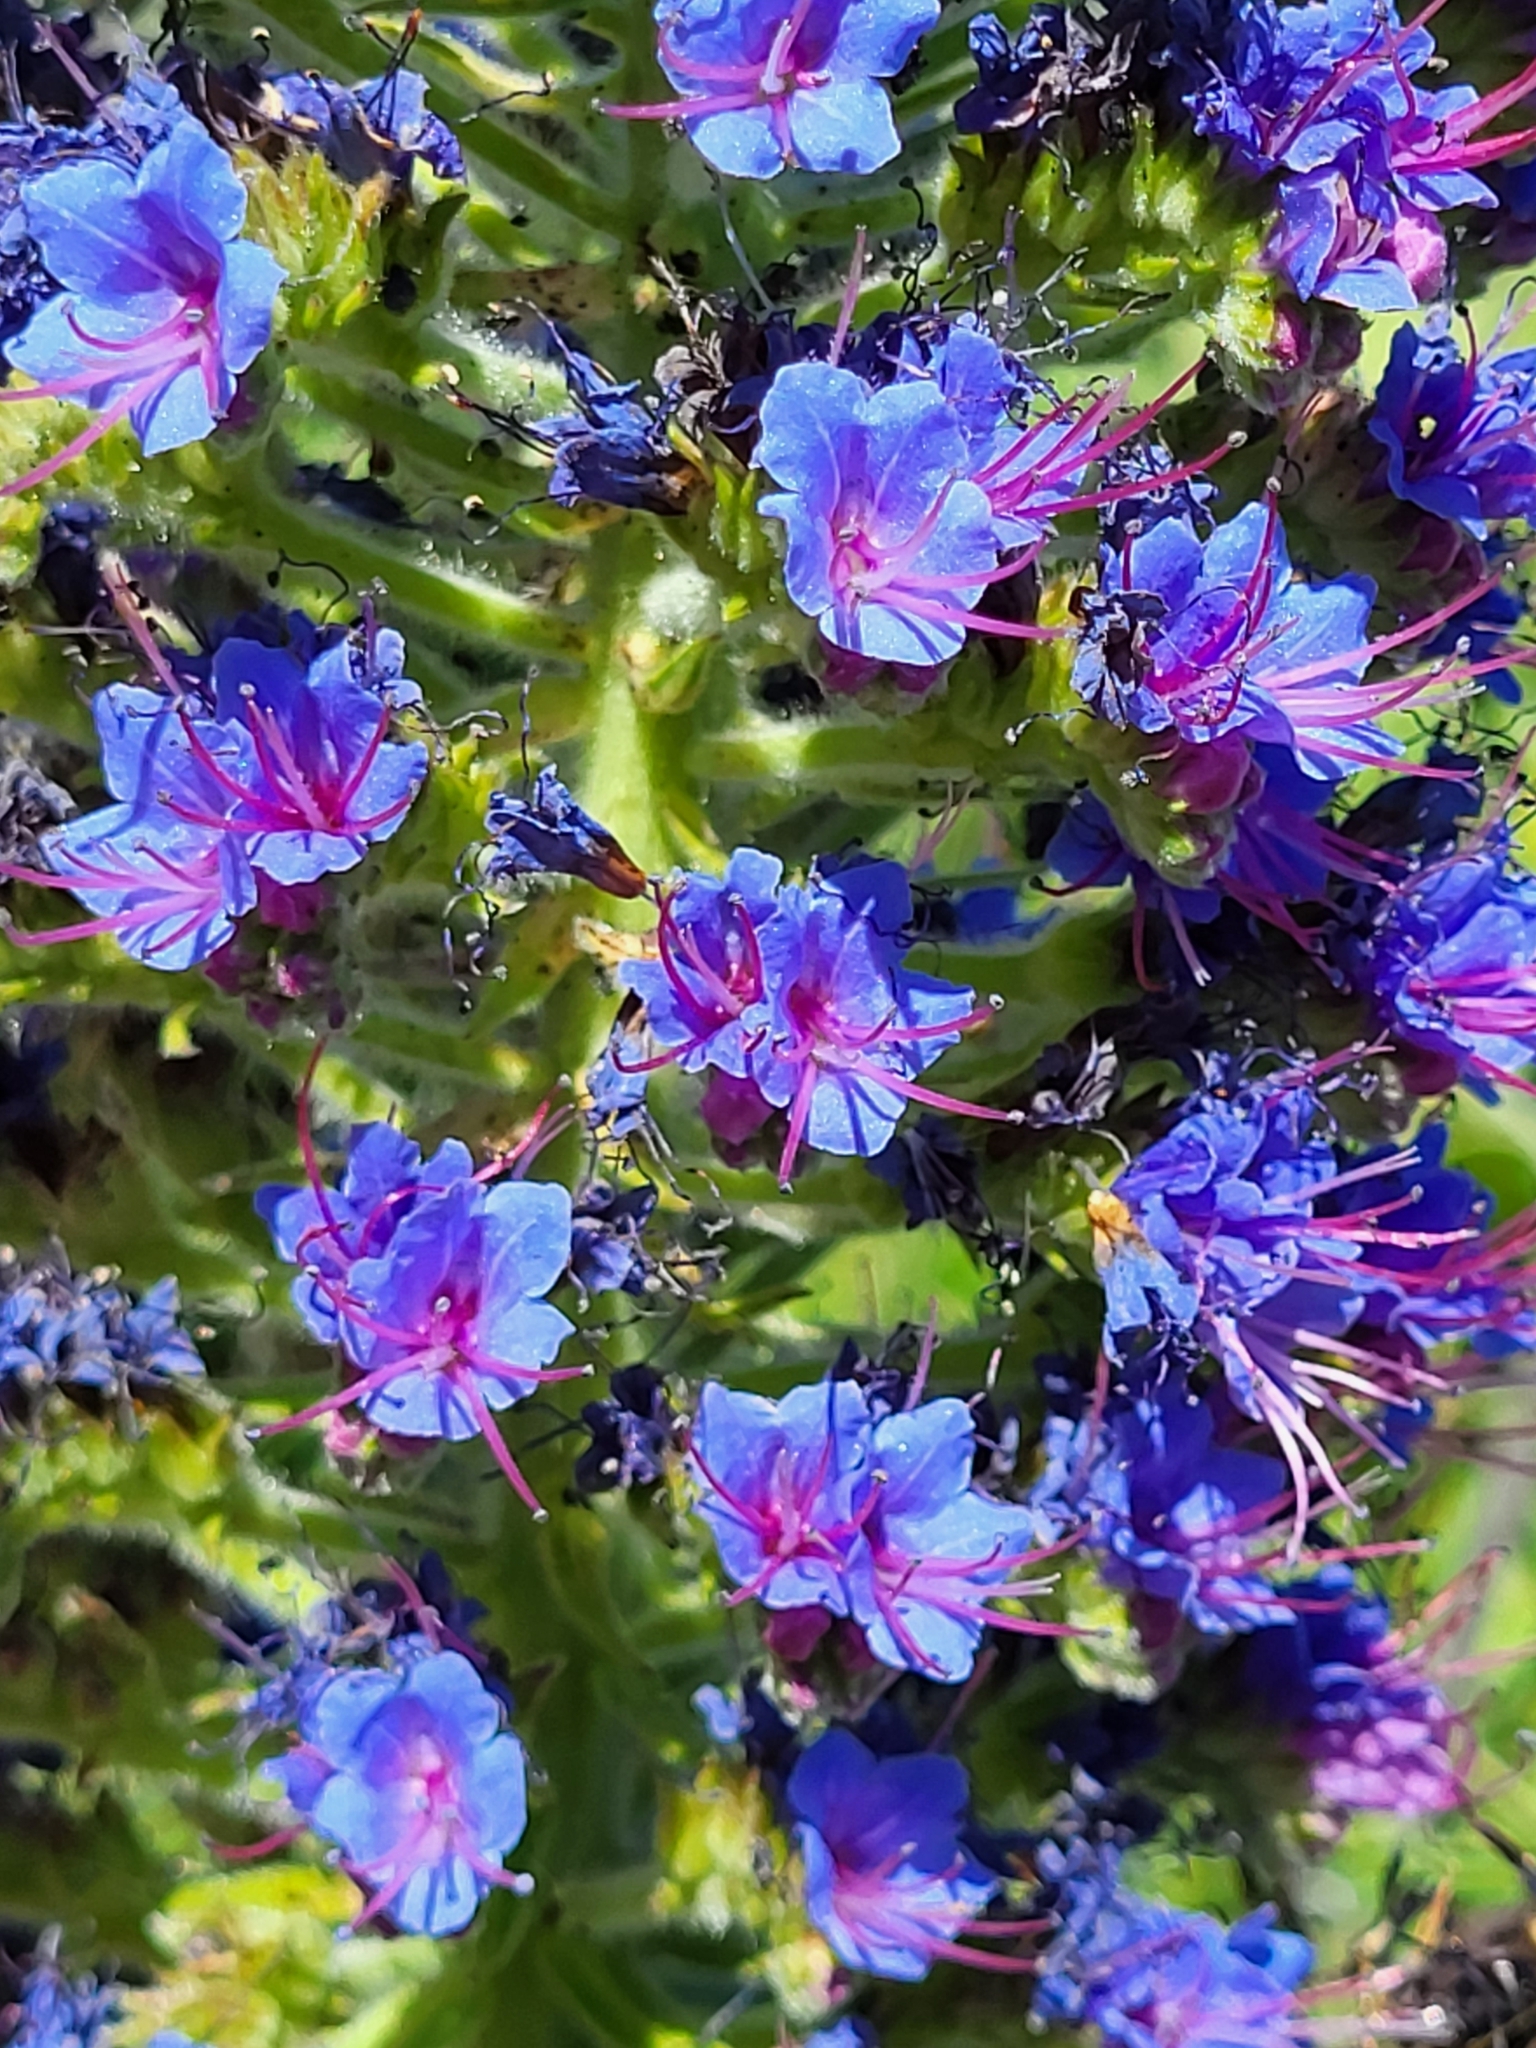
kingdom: Plantae
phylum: Tracheophyta
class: Magnoliopsida
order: Boraginales
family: Boraginaceae
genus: Echium
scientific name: Echium candicans
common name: Pride of madeira
